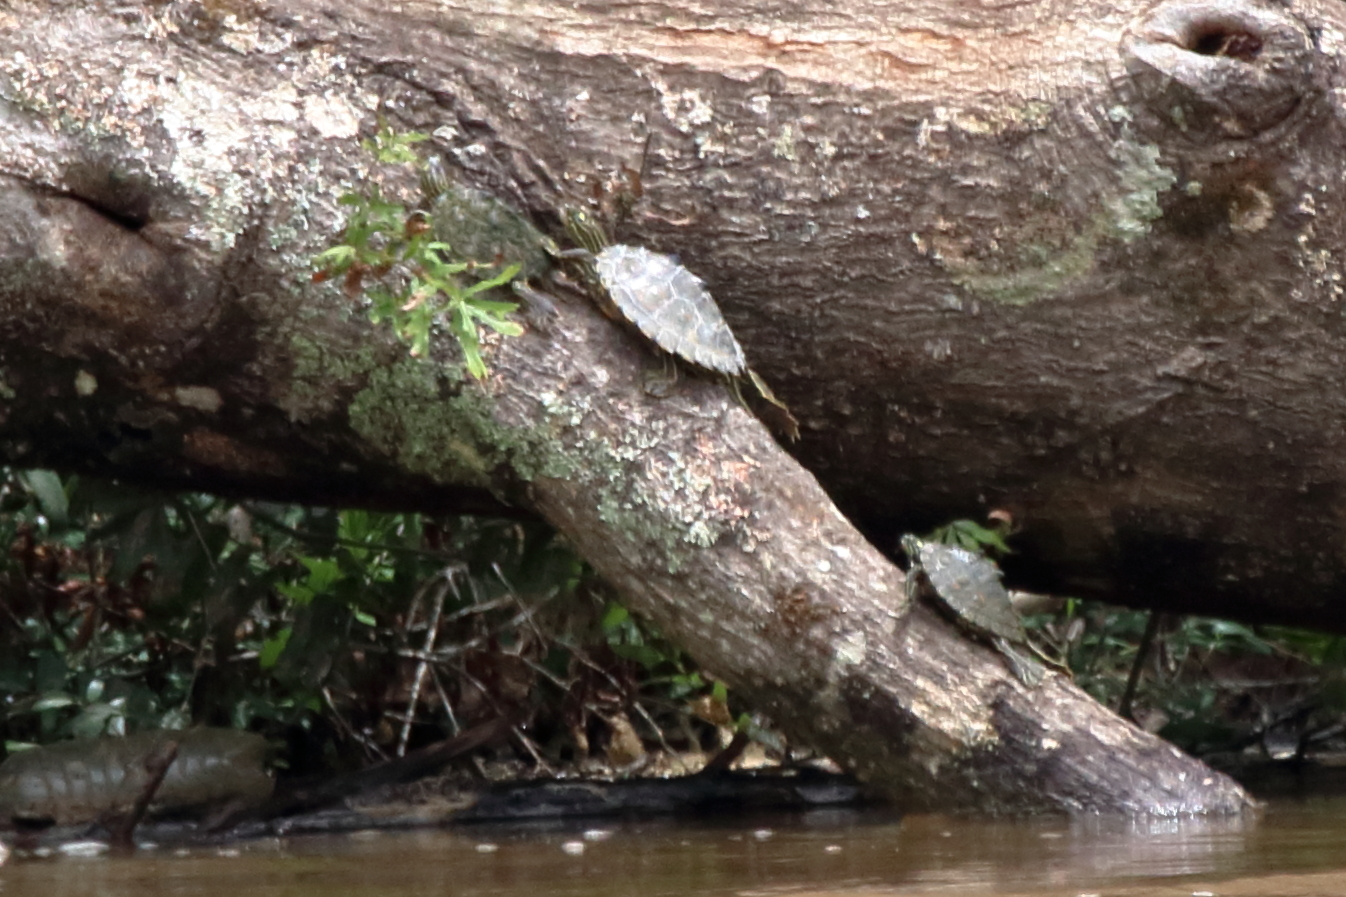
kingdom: Animalia
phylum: Chordata
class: Testudines
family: Emydidae
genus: Graptemys
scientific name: Graptemys oculifera
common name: Ringed map turtle
